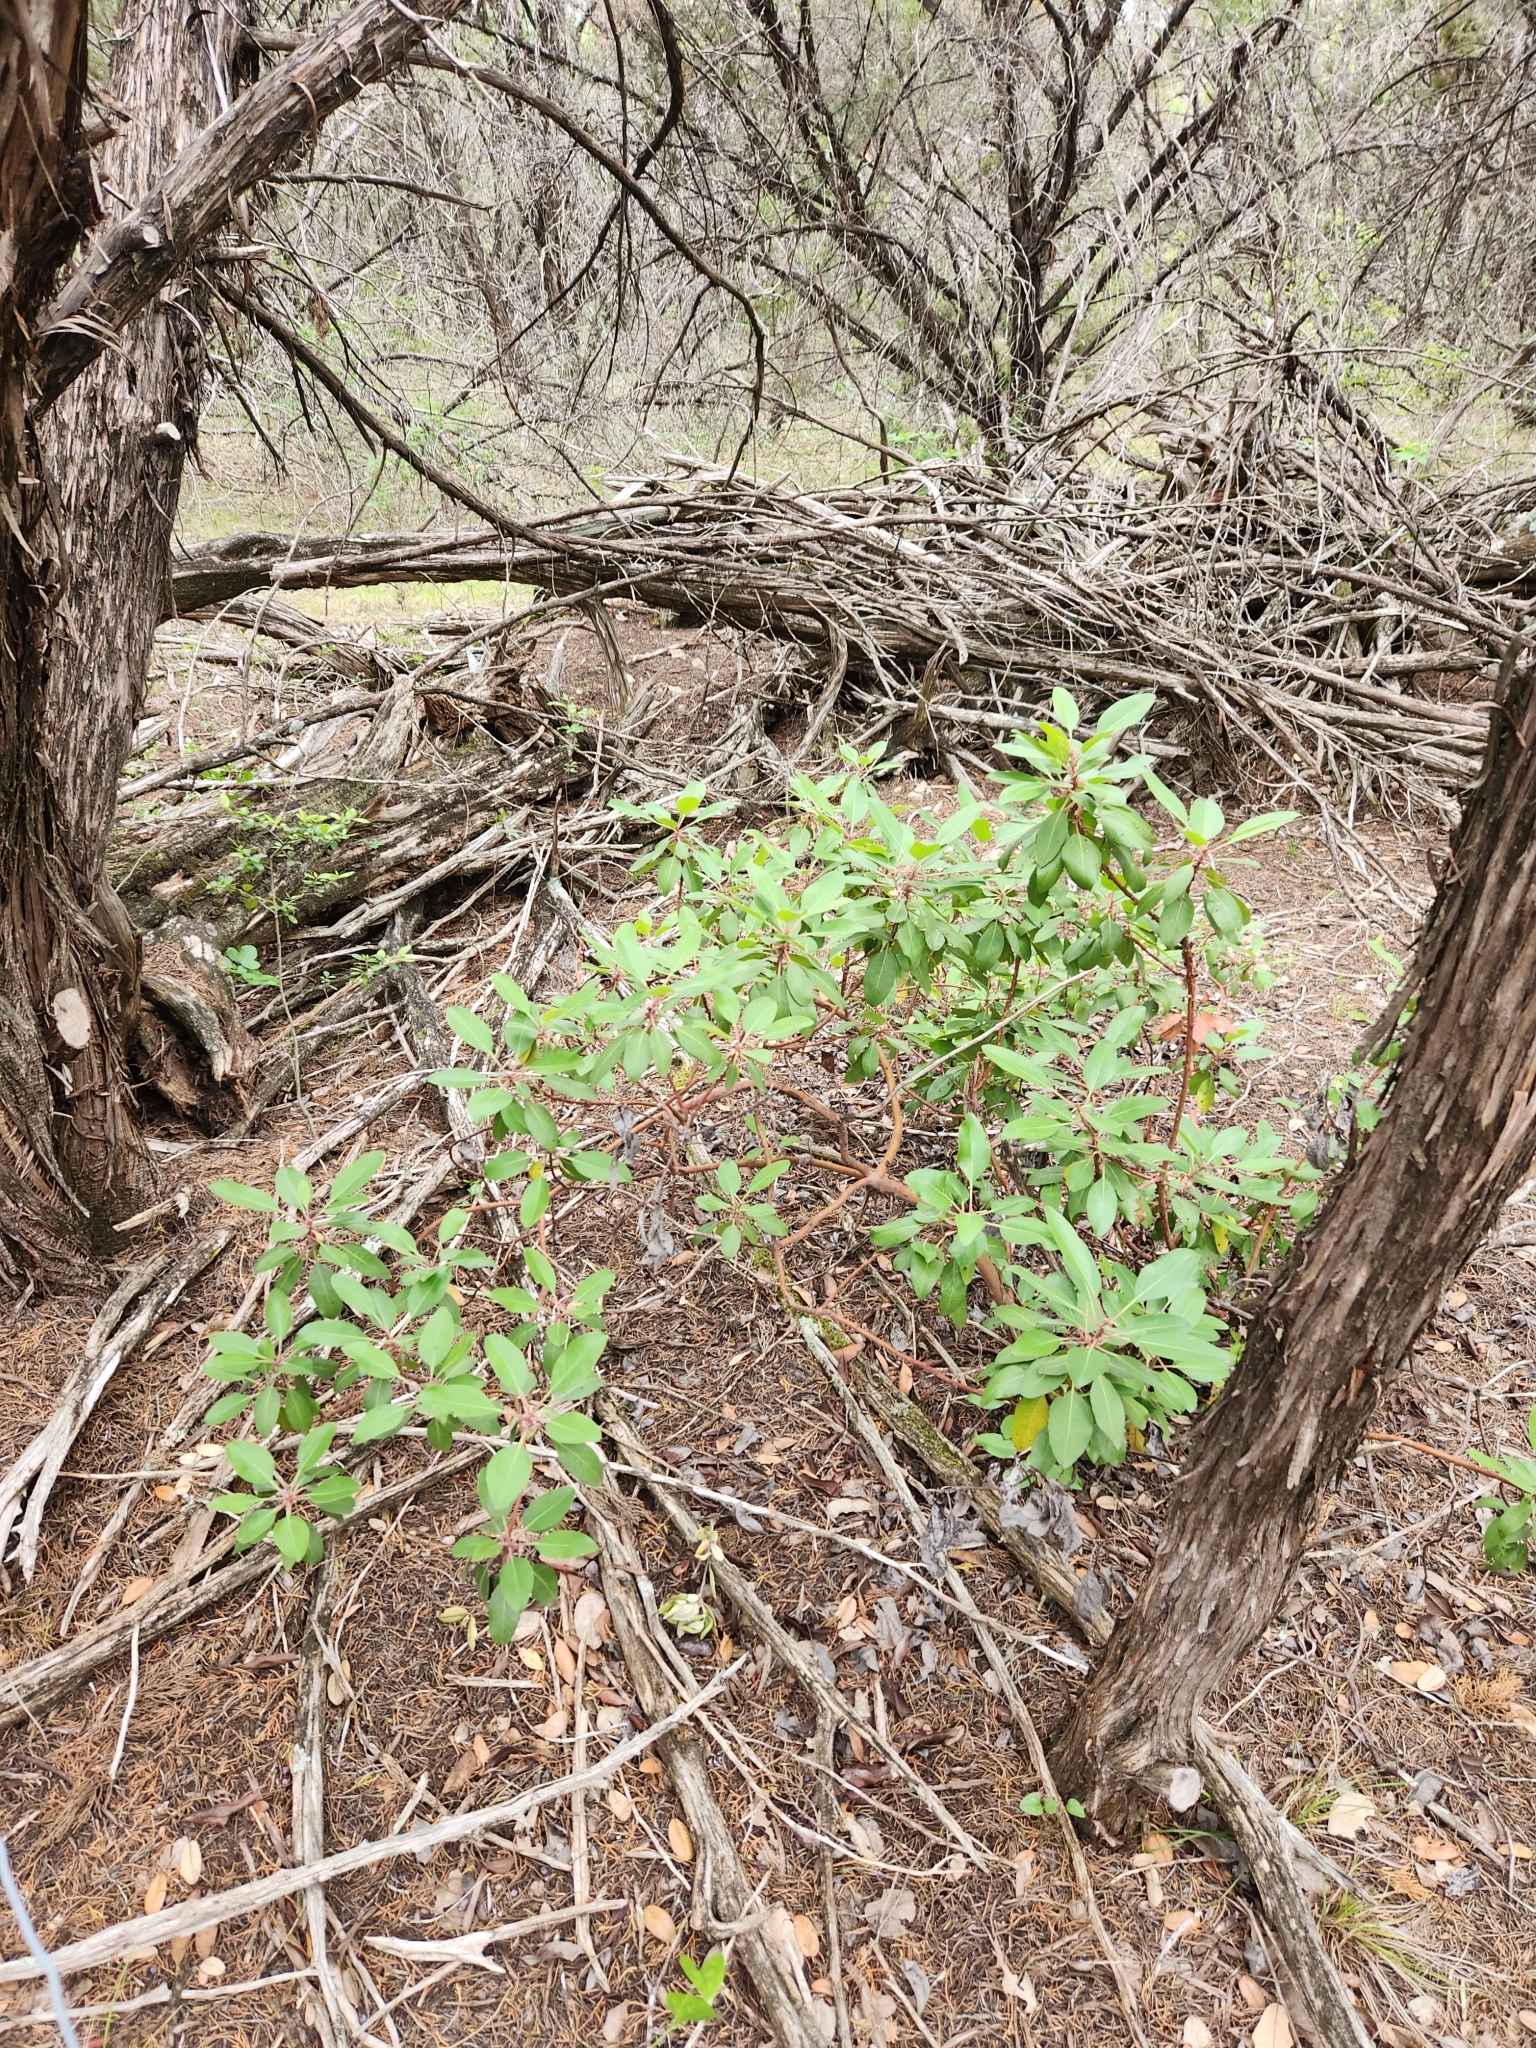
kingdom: Plantae
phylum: Tracheophyta
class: Magnoliopsida
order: Ericales
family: Ericaceae
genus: Arbutus
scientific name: Arbutus xalapensis
